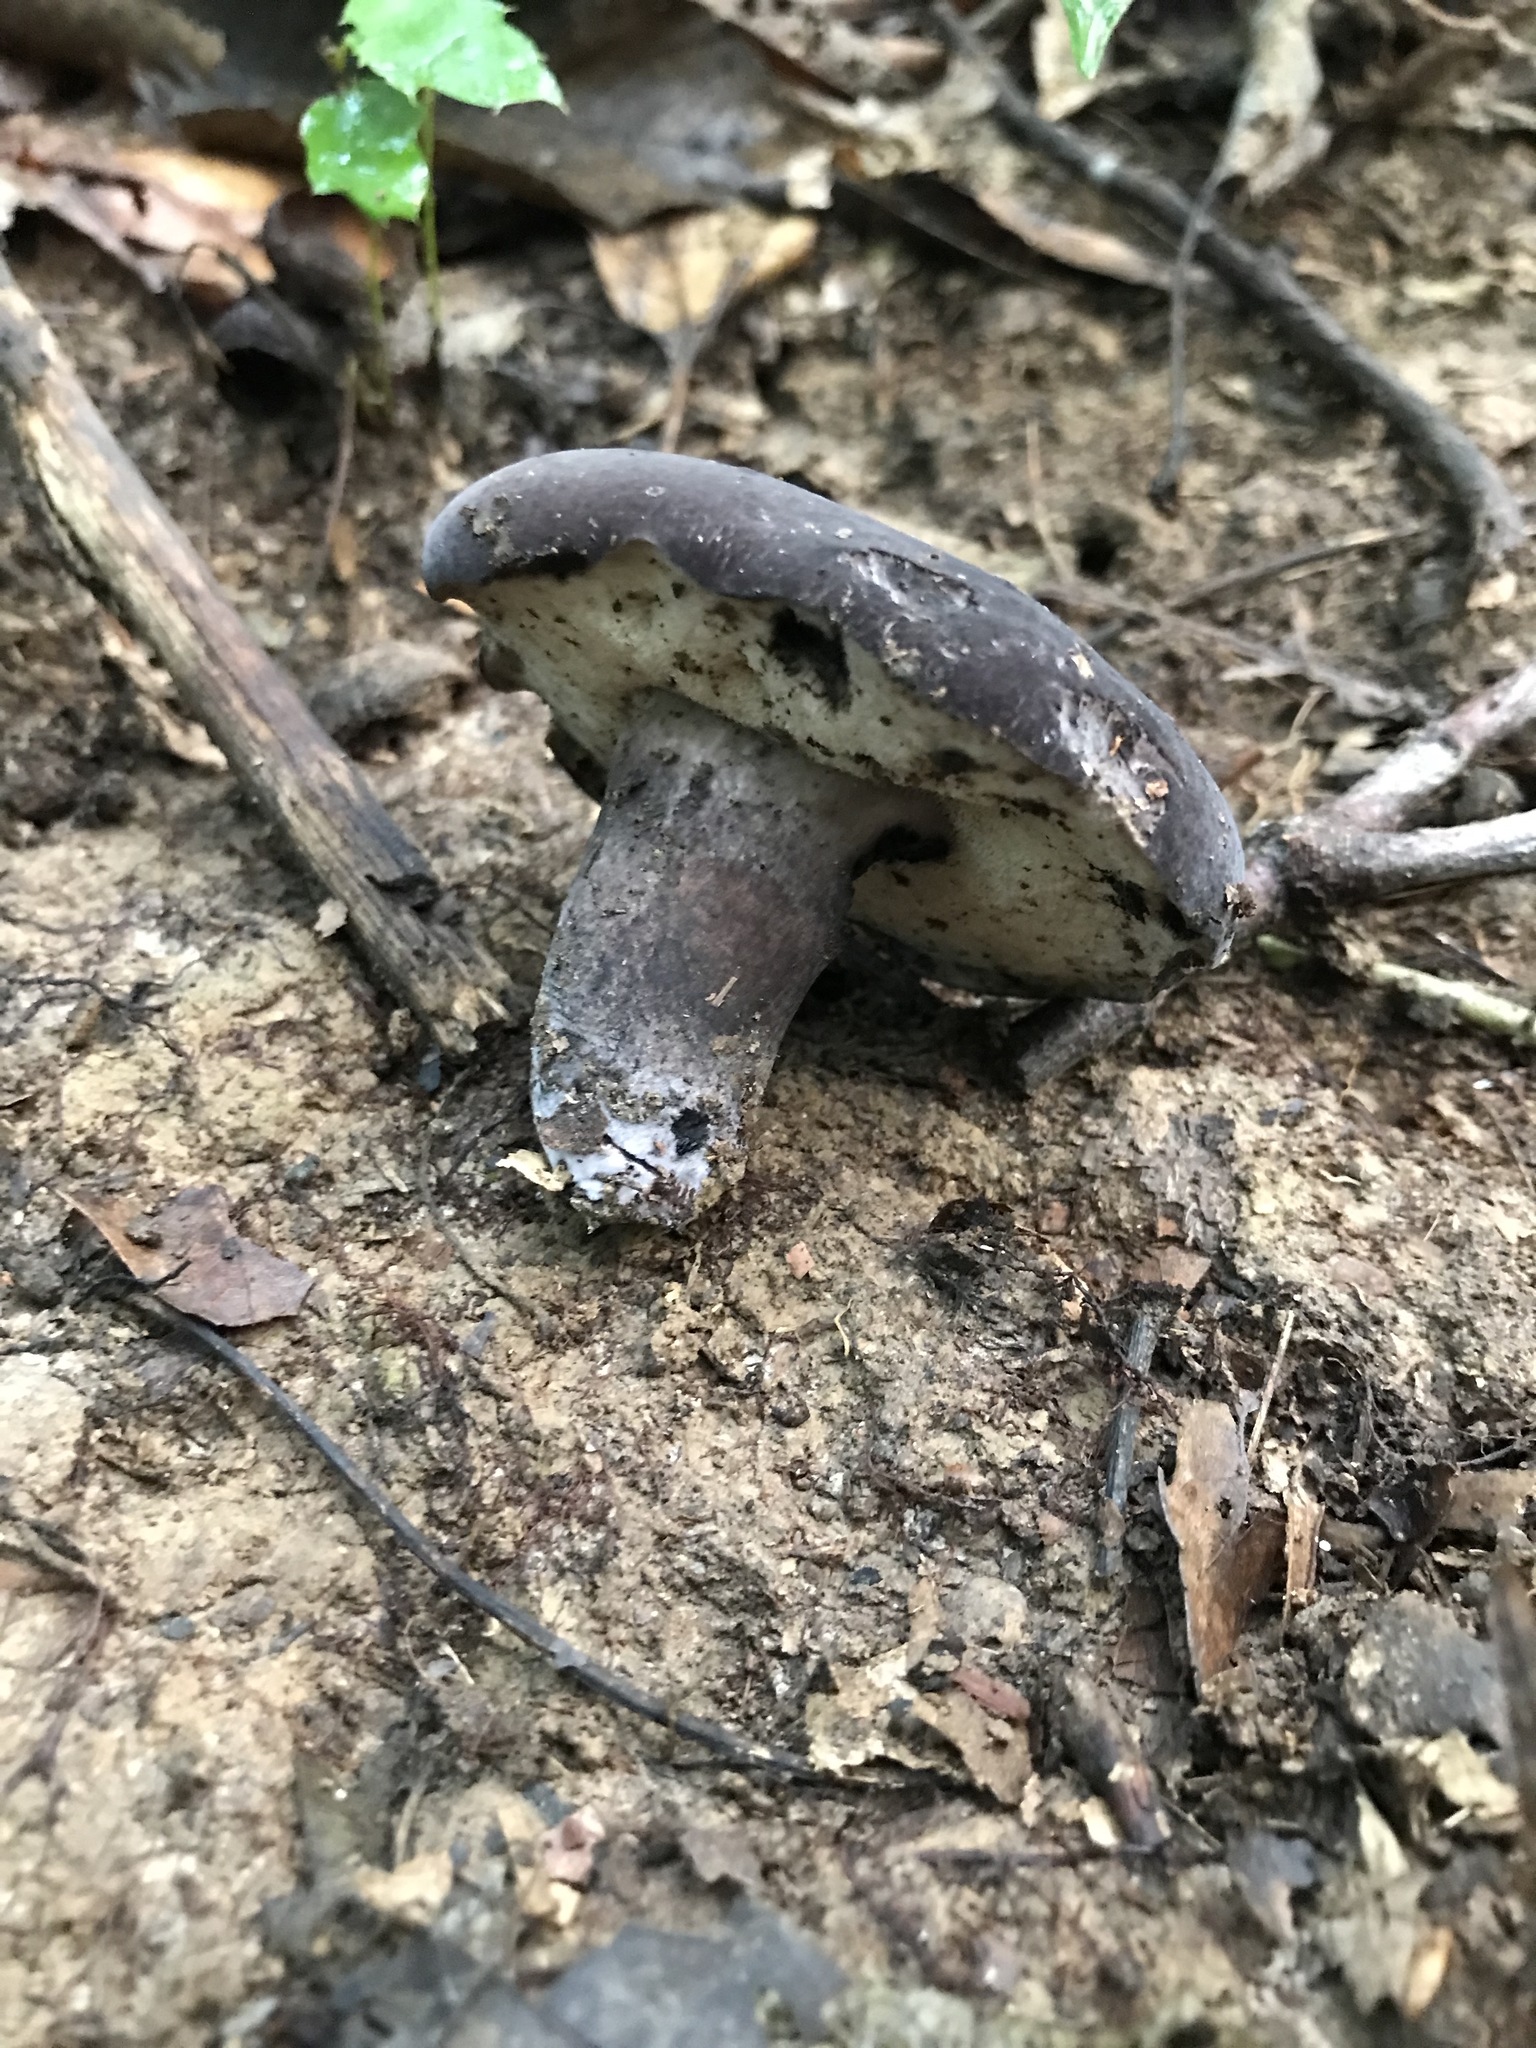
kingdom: Fungi
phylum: Basidiomycota
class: Agaricomycetes
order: Boletales
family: Boletaceae
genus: Tylopilus
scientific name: Tylopilus alboater
